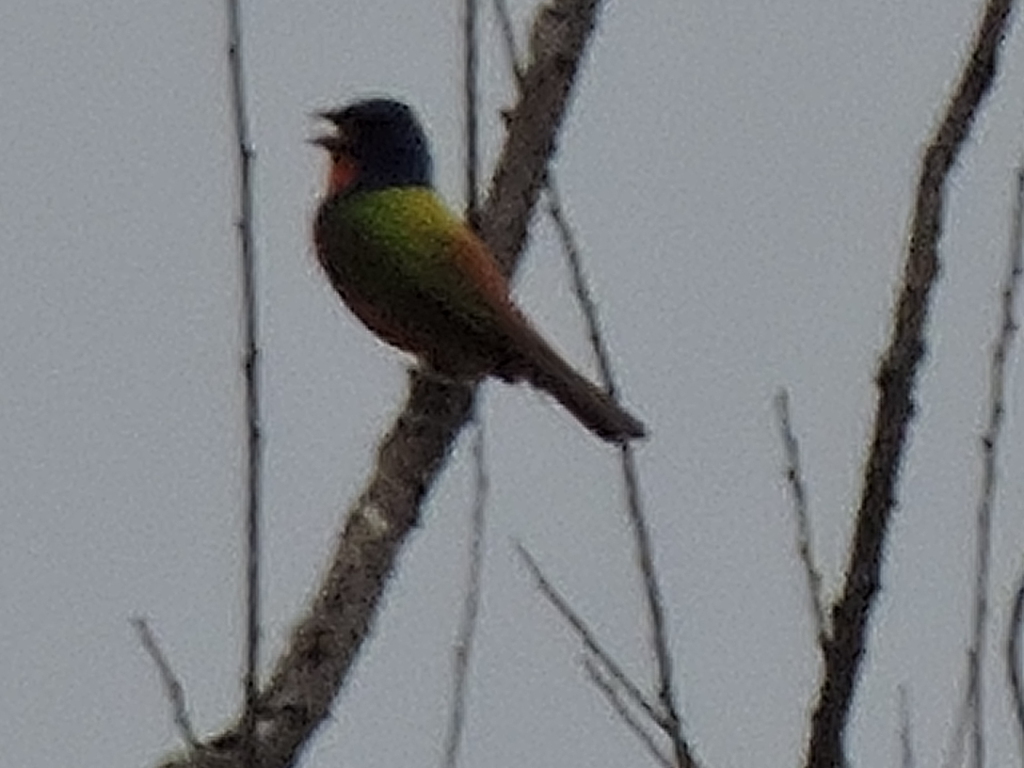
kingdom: Animalia
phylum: Chordata
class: Aves
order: Passeriformes
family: Cardinalidae
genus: Passerina
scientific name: Passerina ciris
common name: Painted bunting
